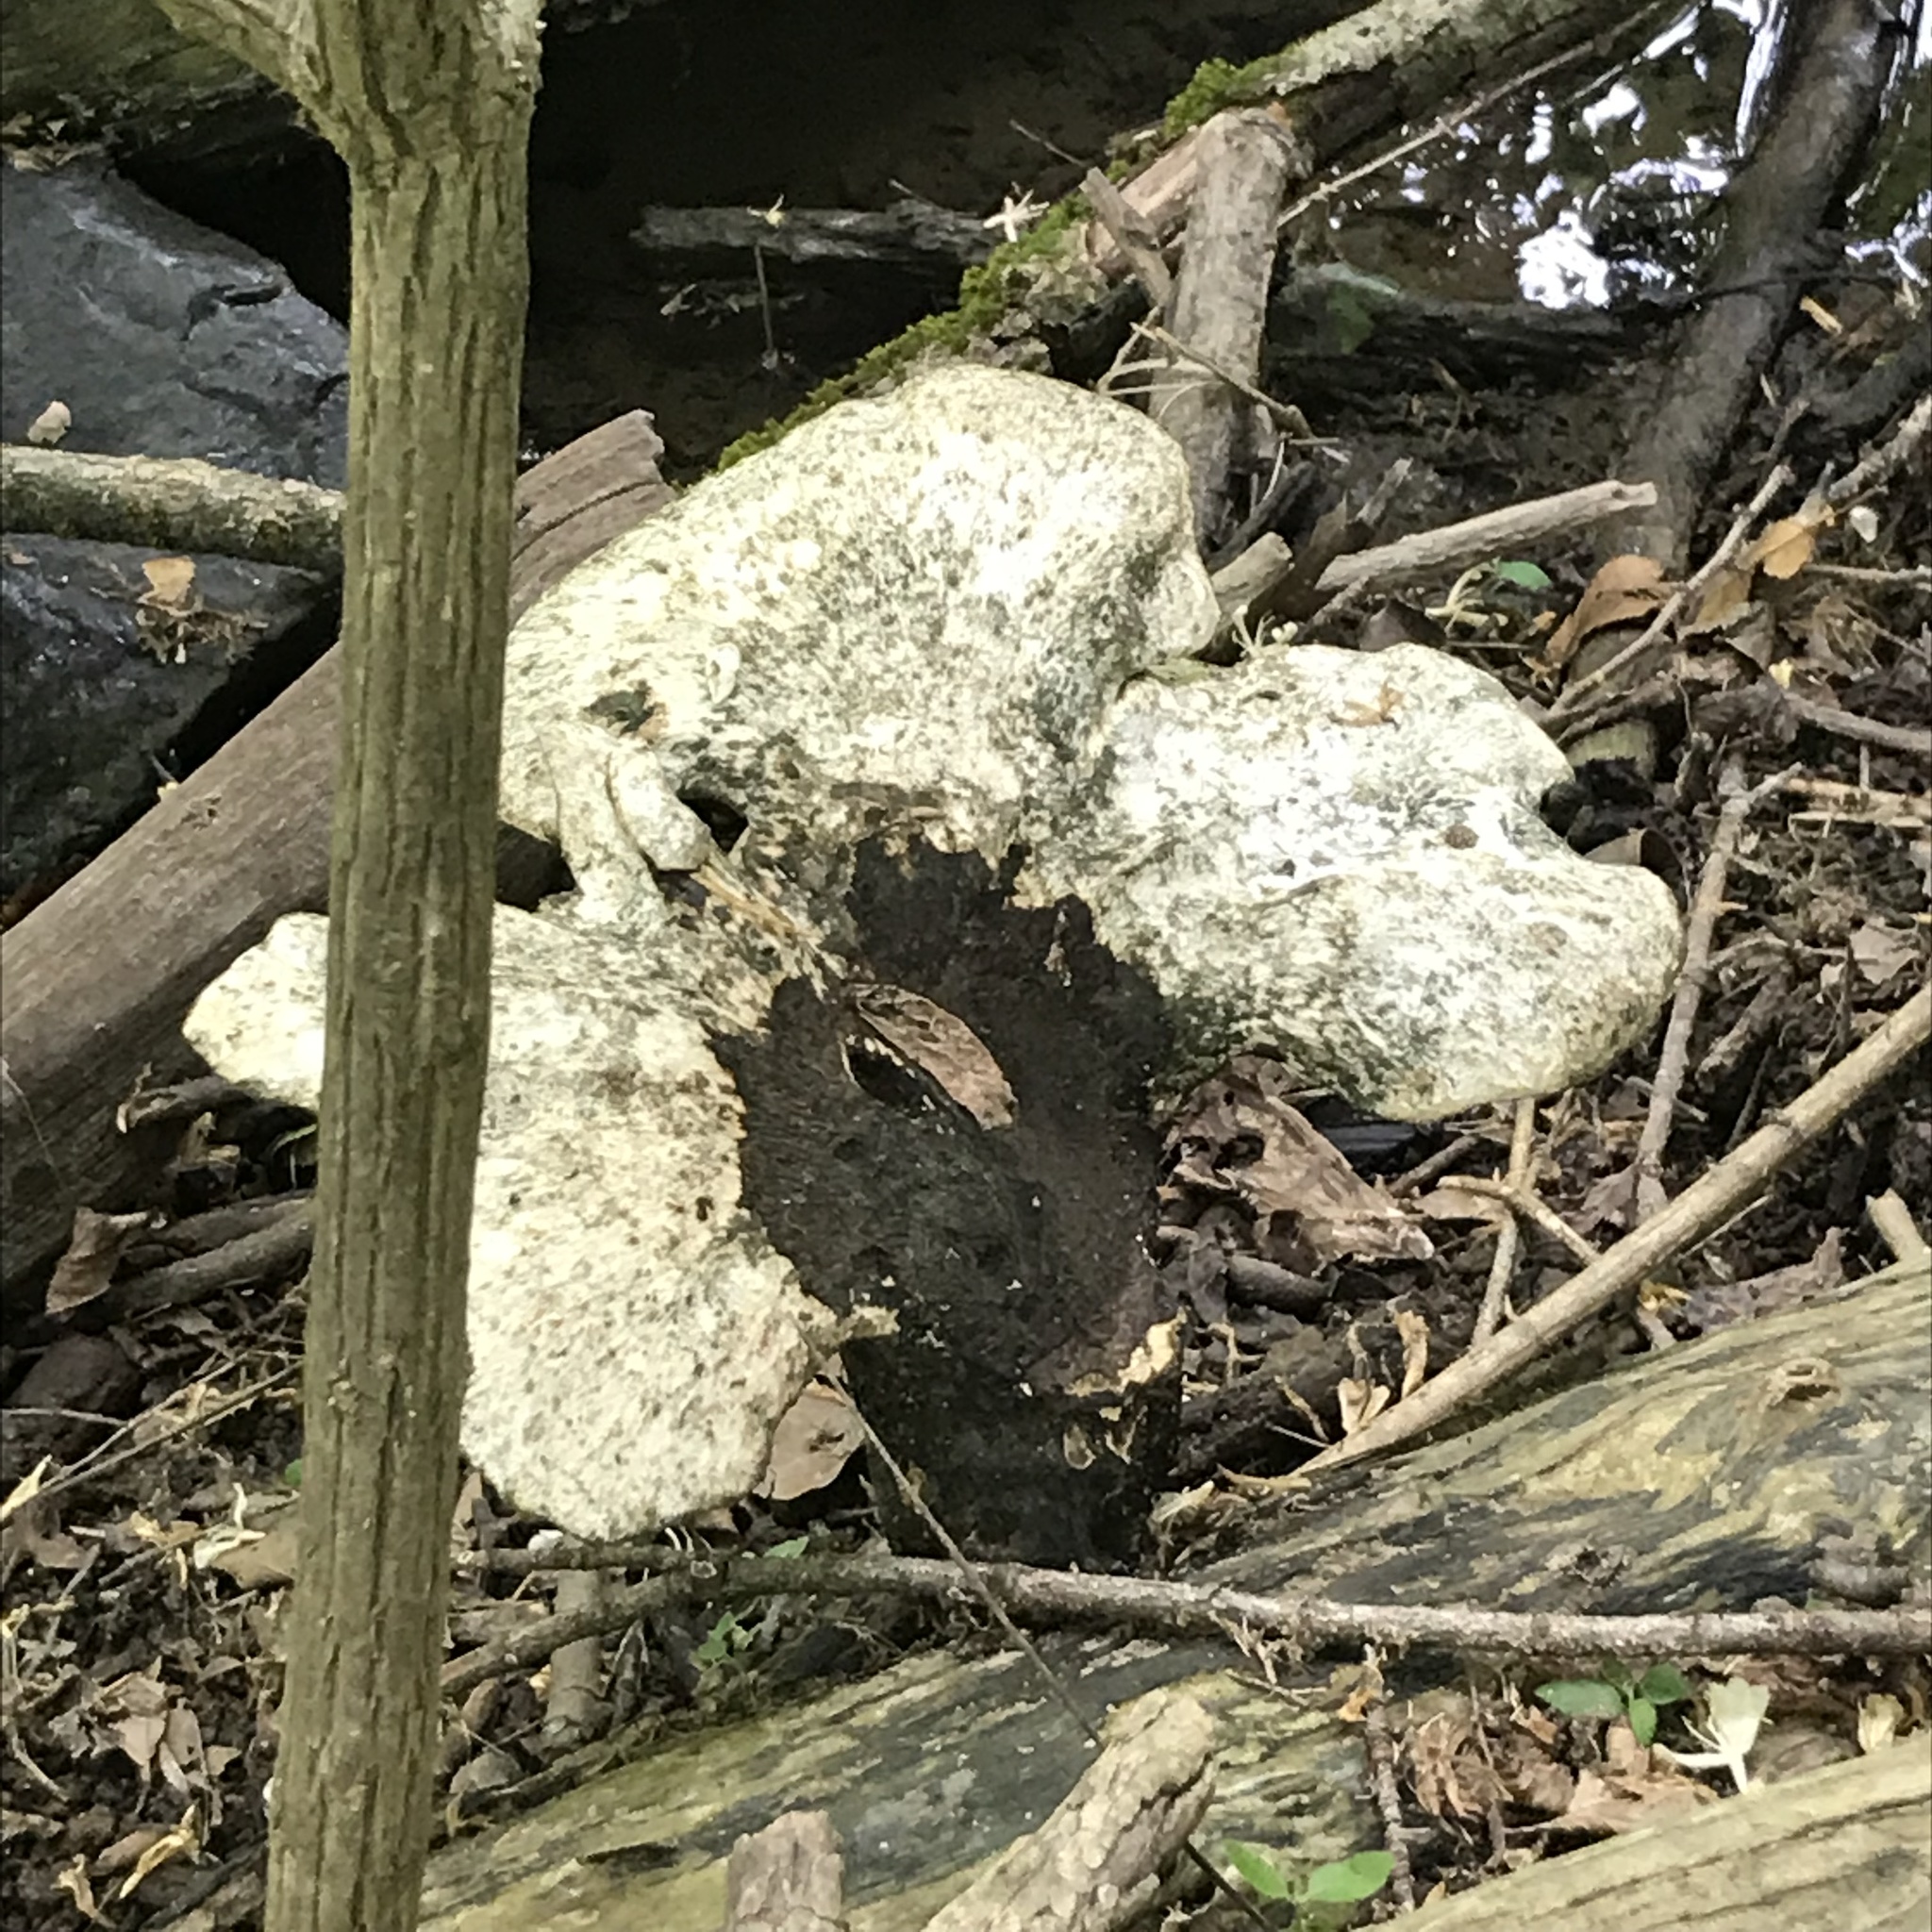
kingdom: Fungi
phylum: Basidiomycota
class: Agaricomycetes
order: Polyporales
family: Polyporaceae
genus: Cerioporus
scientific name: Cerioporus squamosus
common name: Dryad's saddle
